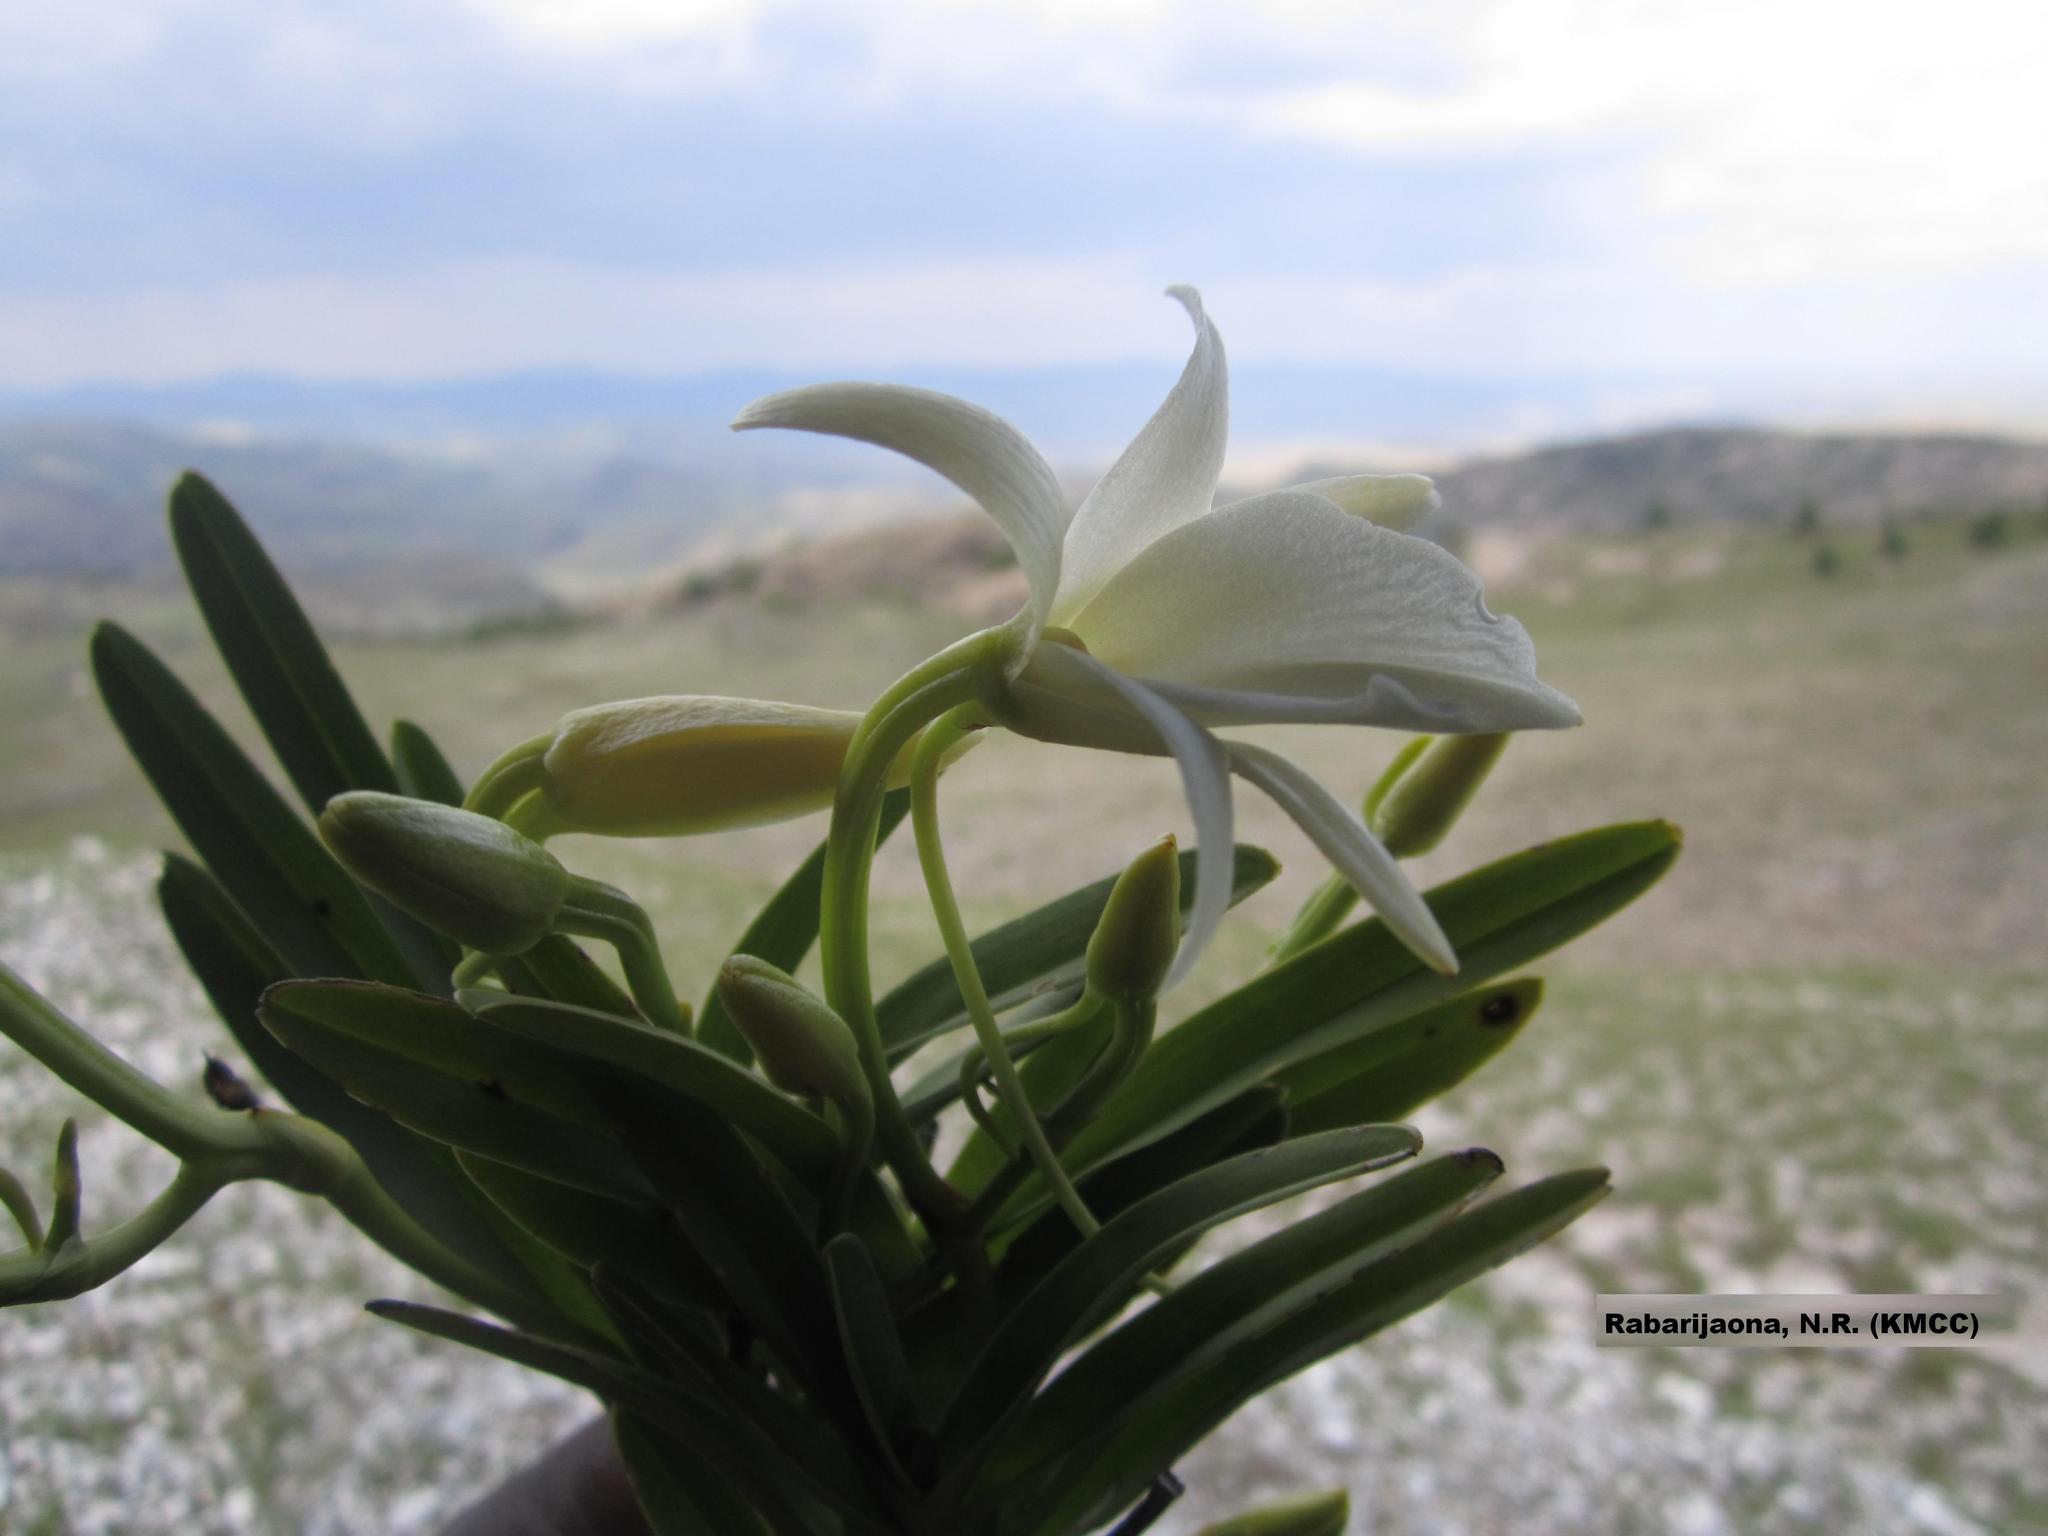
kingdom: Plantae
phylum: Tracheophyta
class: Liliopsida
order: Asparagales
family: Orchidaceae
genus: Angraecum
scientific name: Angraecum protensum
